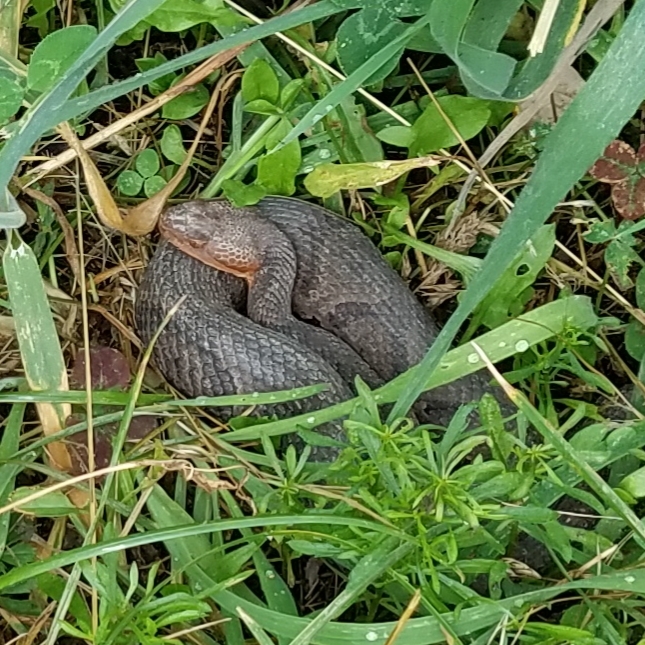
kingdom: Animalia
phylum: Chordata
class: Squamata
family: Viperidae
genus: Agkistrodon
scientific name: Agkistrodon contortrix
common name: Northern copperhead
